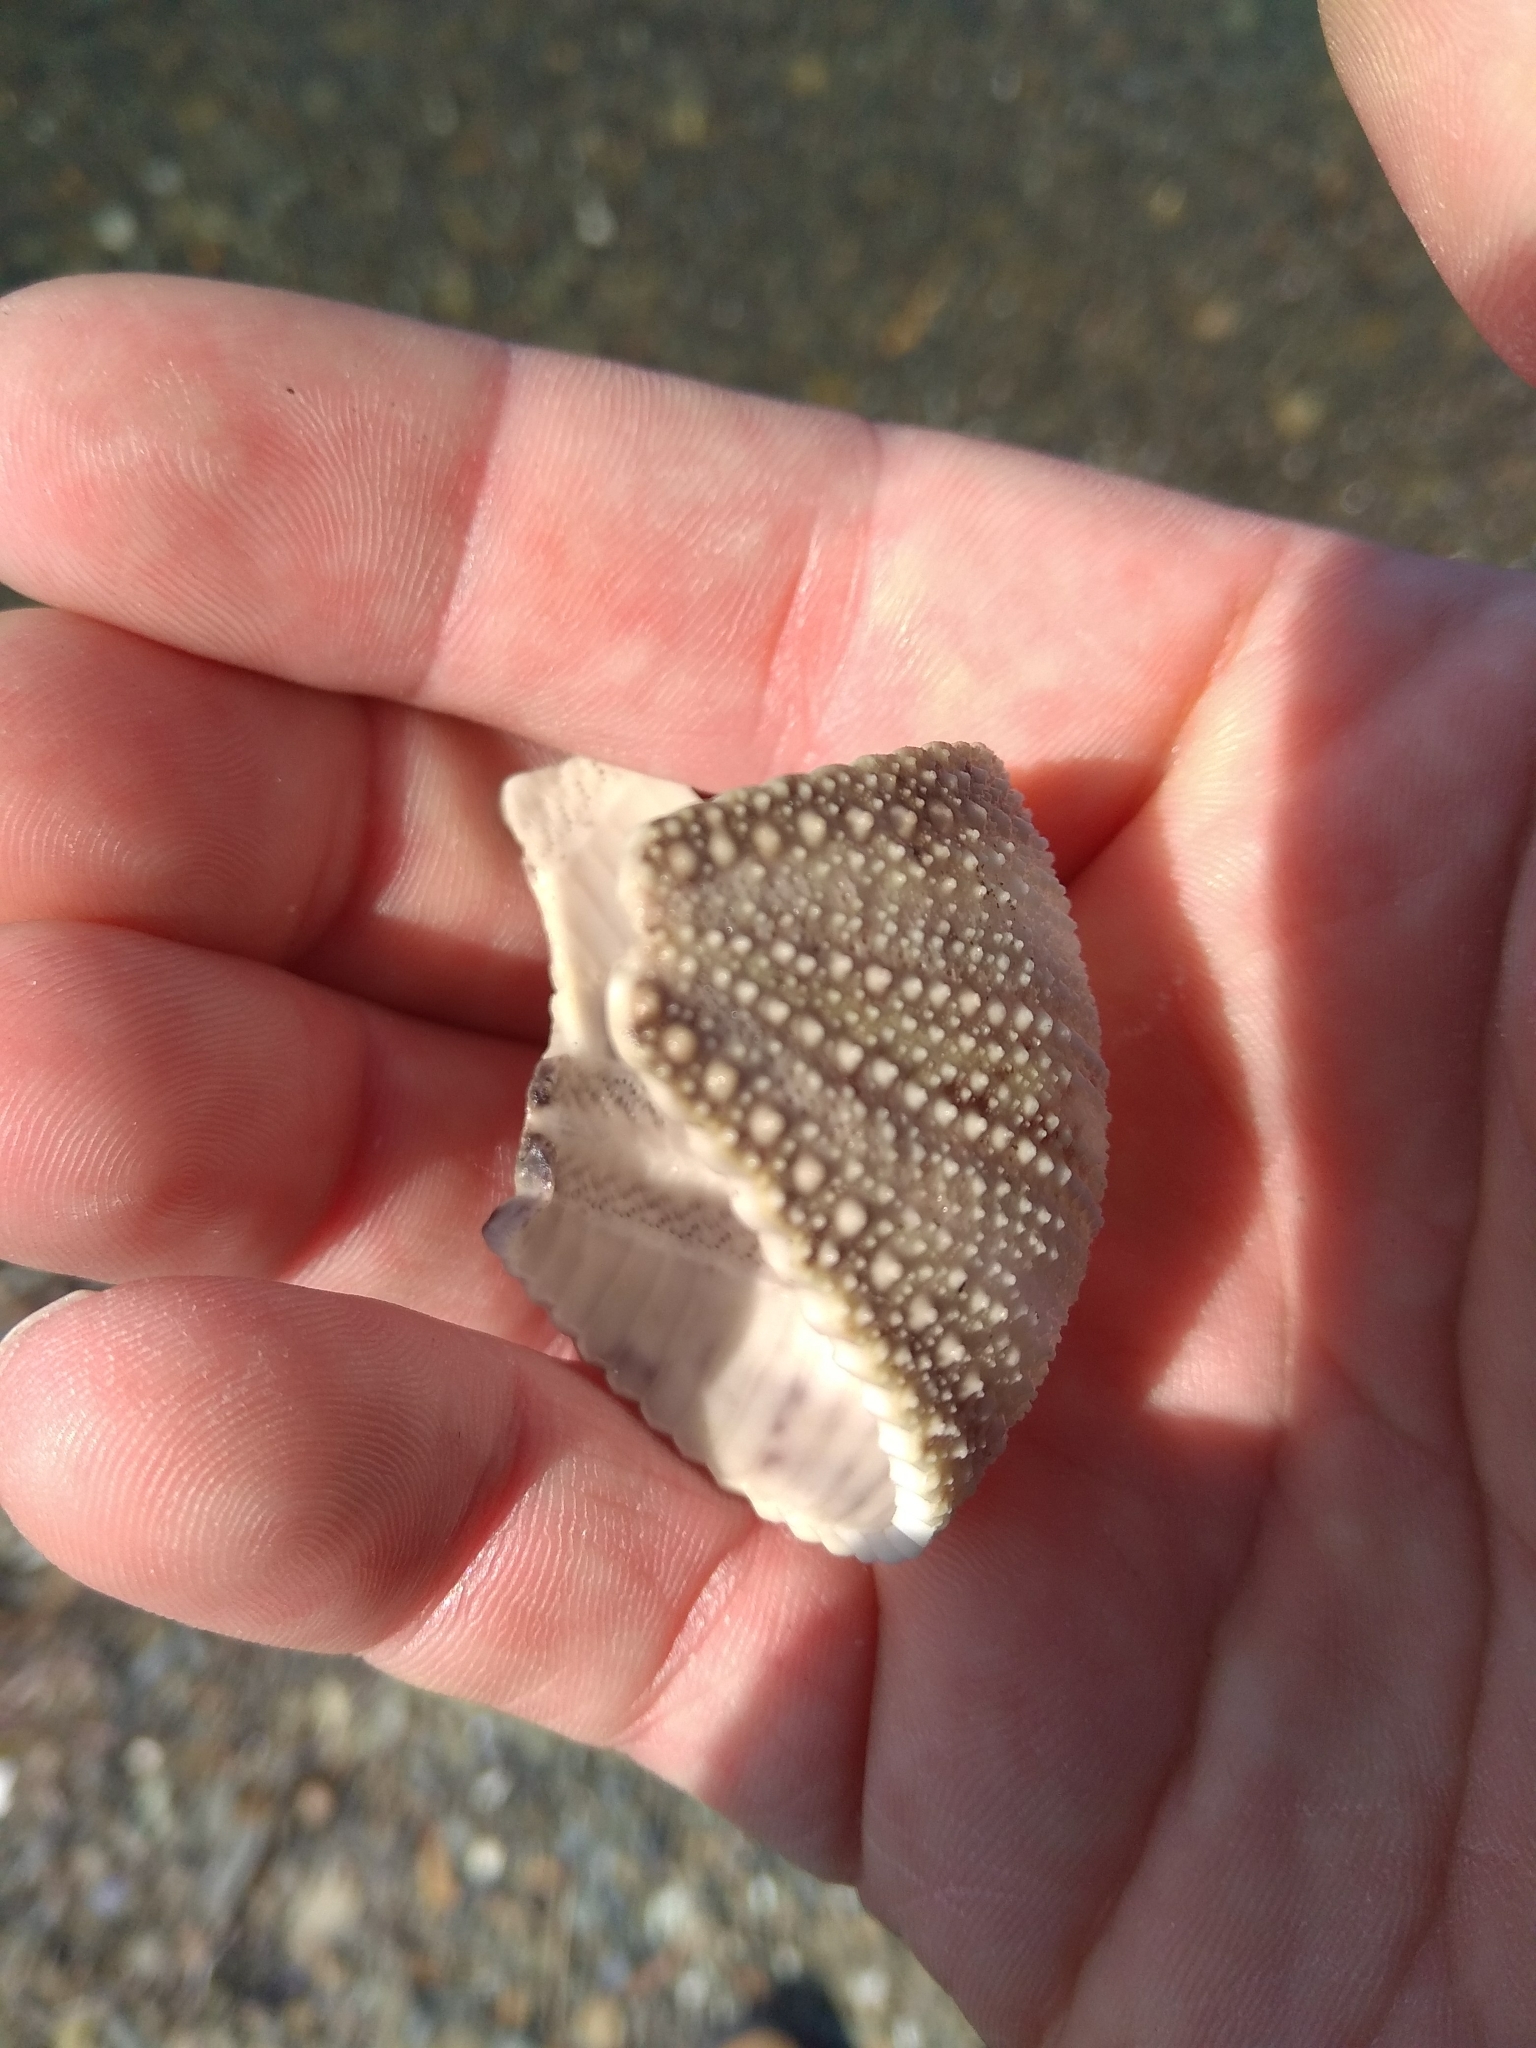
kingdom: Animalia
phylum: Echinodermata
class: Echinoidea
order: Camarodonta
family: Strongylocentrotidae
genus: Strongylocentrotus
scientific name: Strongylocentrotus intermedius
